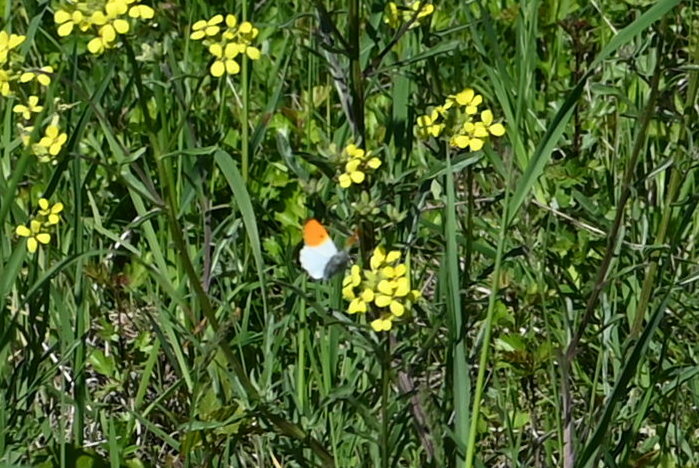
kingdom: Animalia
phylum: Arthropoda
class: Insecta
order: Lepidoptera
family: Pieridae
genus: Anthocharis
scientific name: Anthocharis cardamines
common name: Orange-tip
